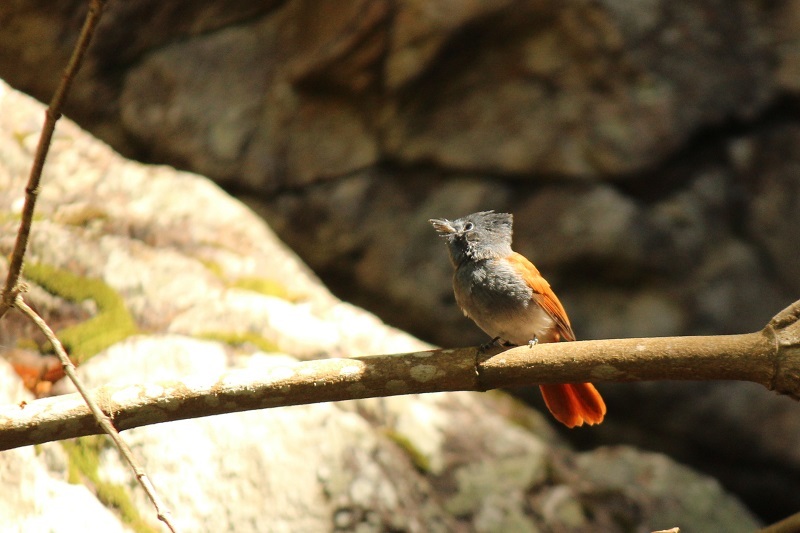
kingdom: Animalia
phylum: Chordata
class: Aves
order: Passeriformes
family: Monarchidae
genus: Terpsiphone
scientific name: Terpsiphone viridis
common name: African paradise flycatcher
